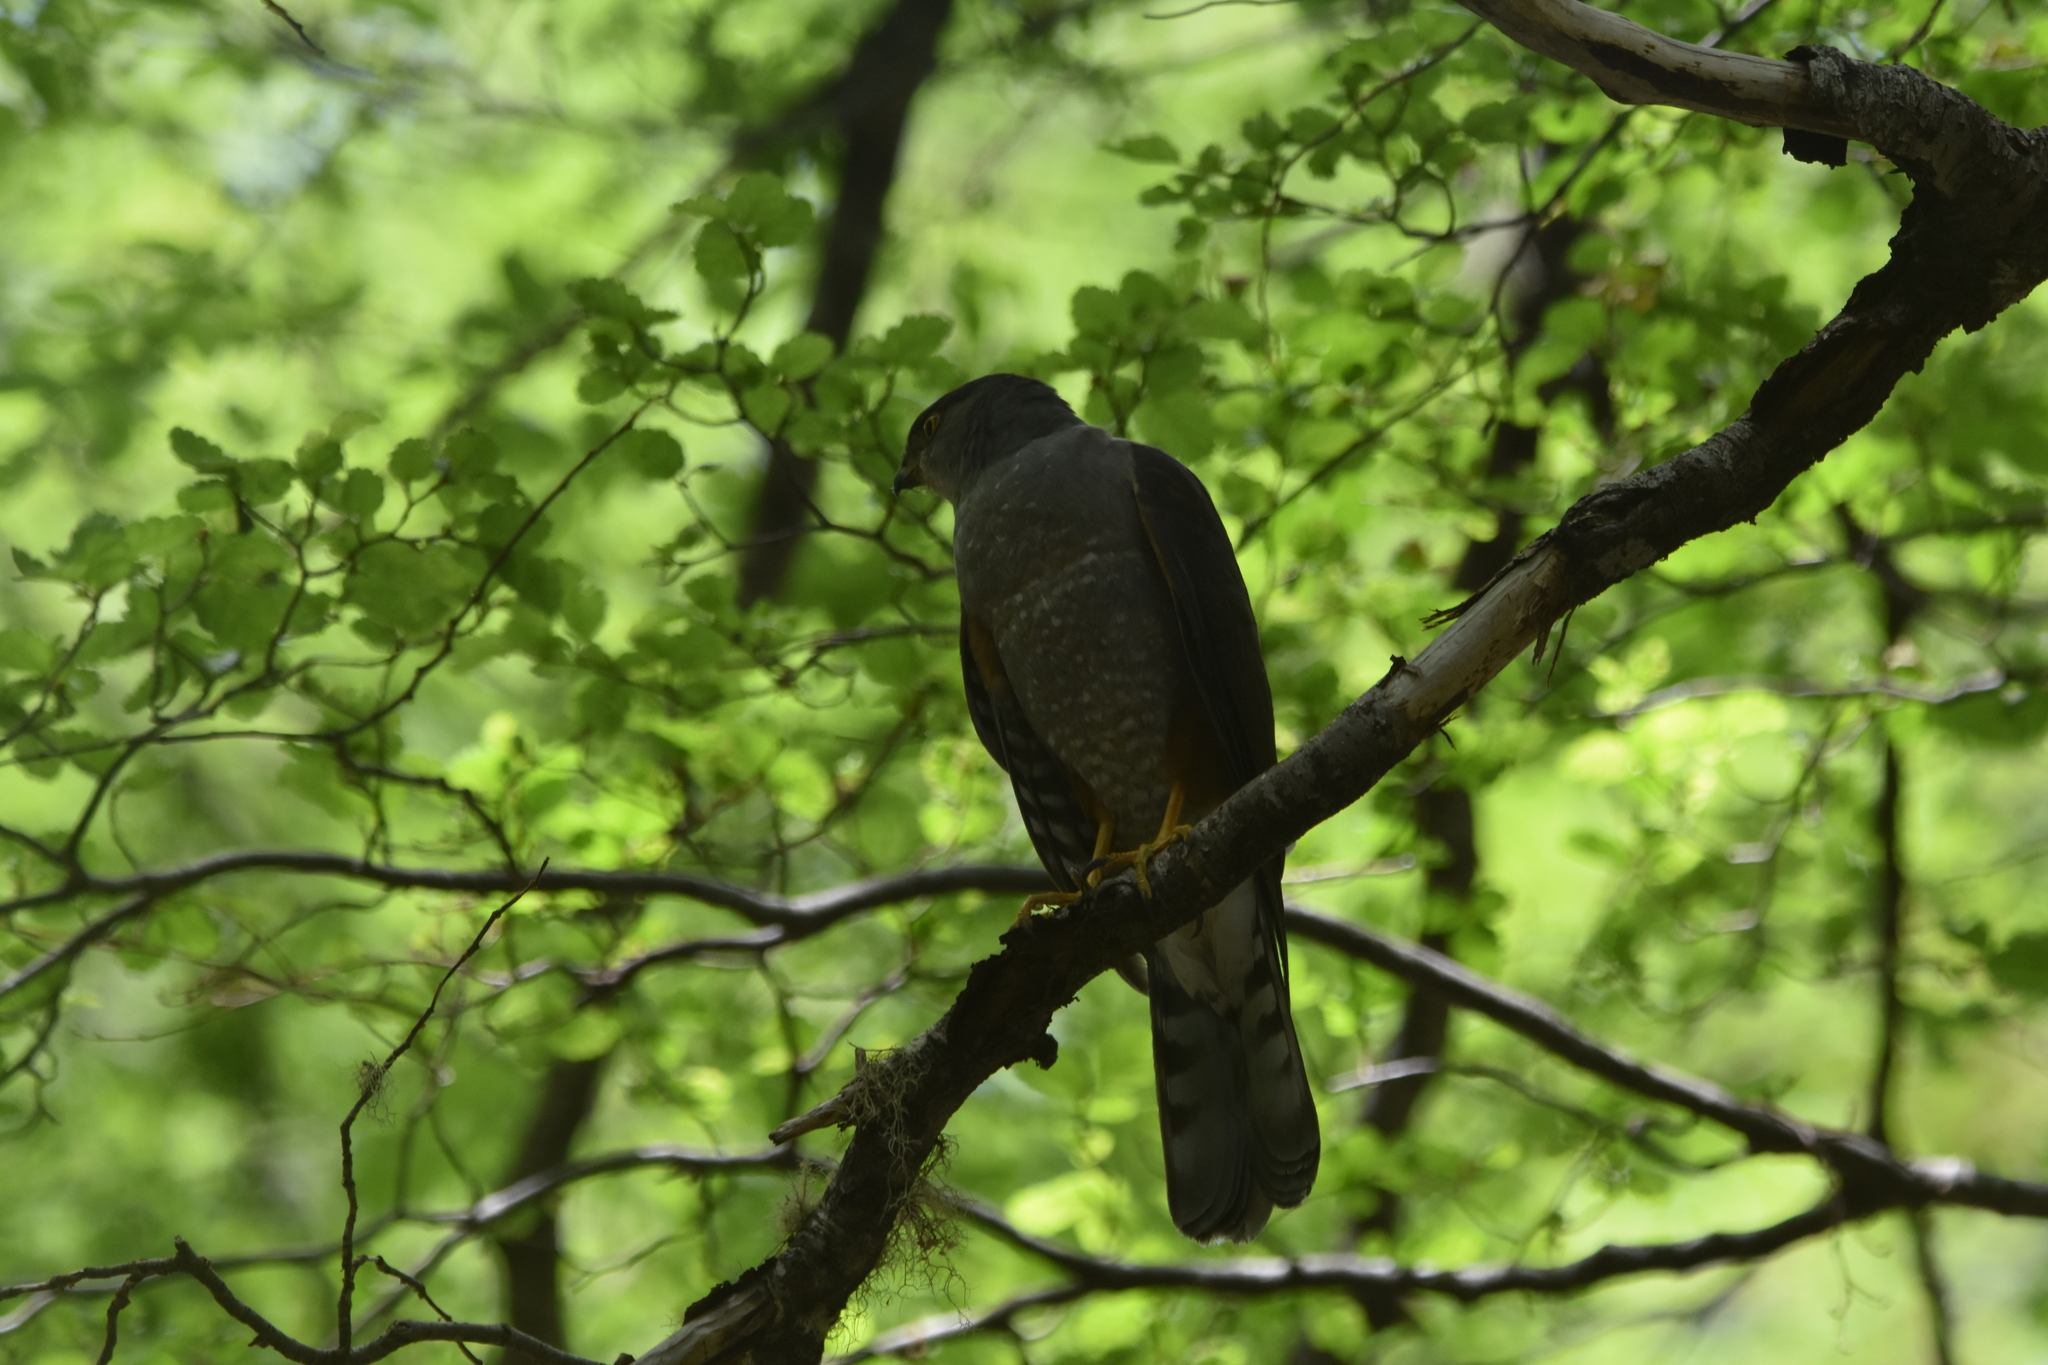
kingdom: Animalia
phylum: Chordata
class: Aves
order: Accipitriformes
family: Accipitridae
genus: Accipiter
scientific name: Accipiter chilensis
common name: Chilean hawk
